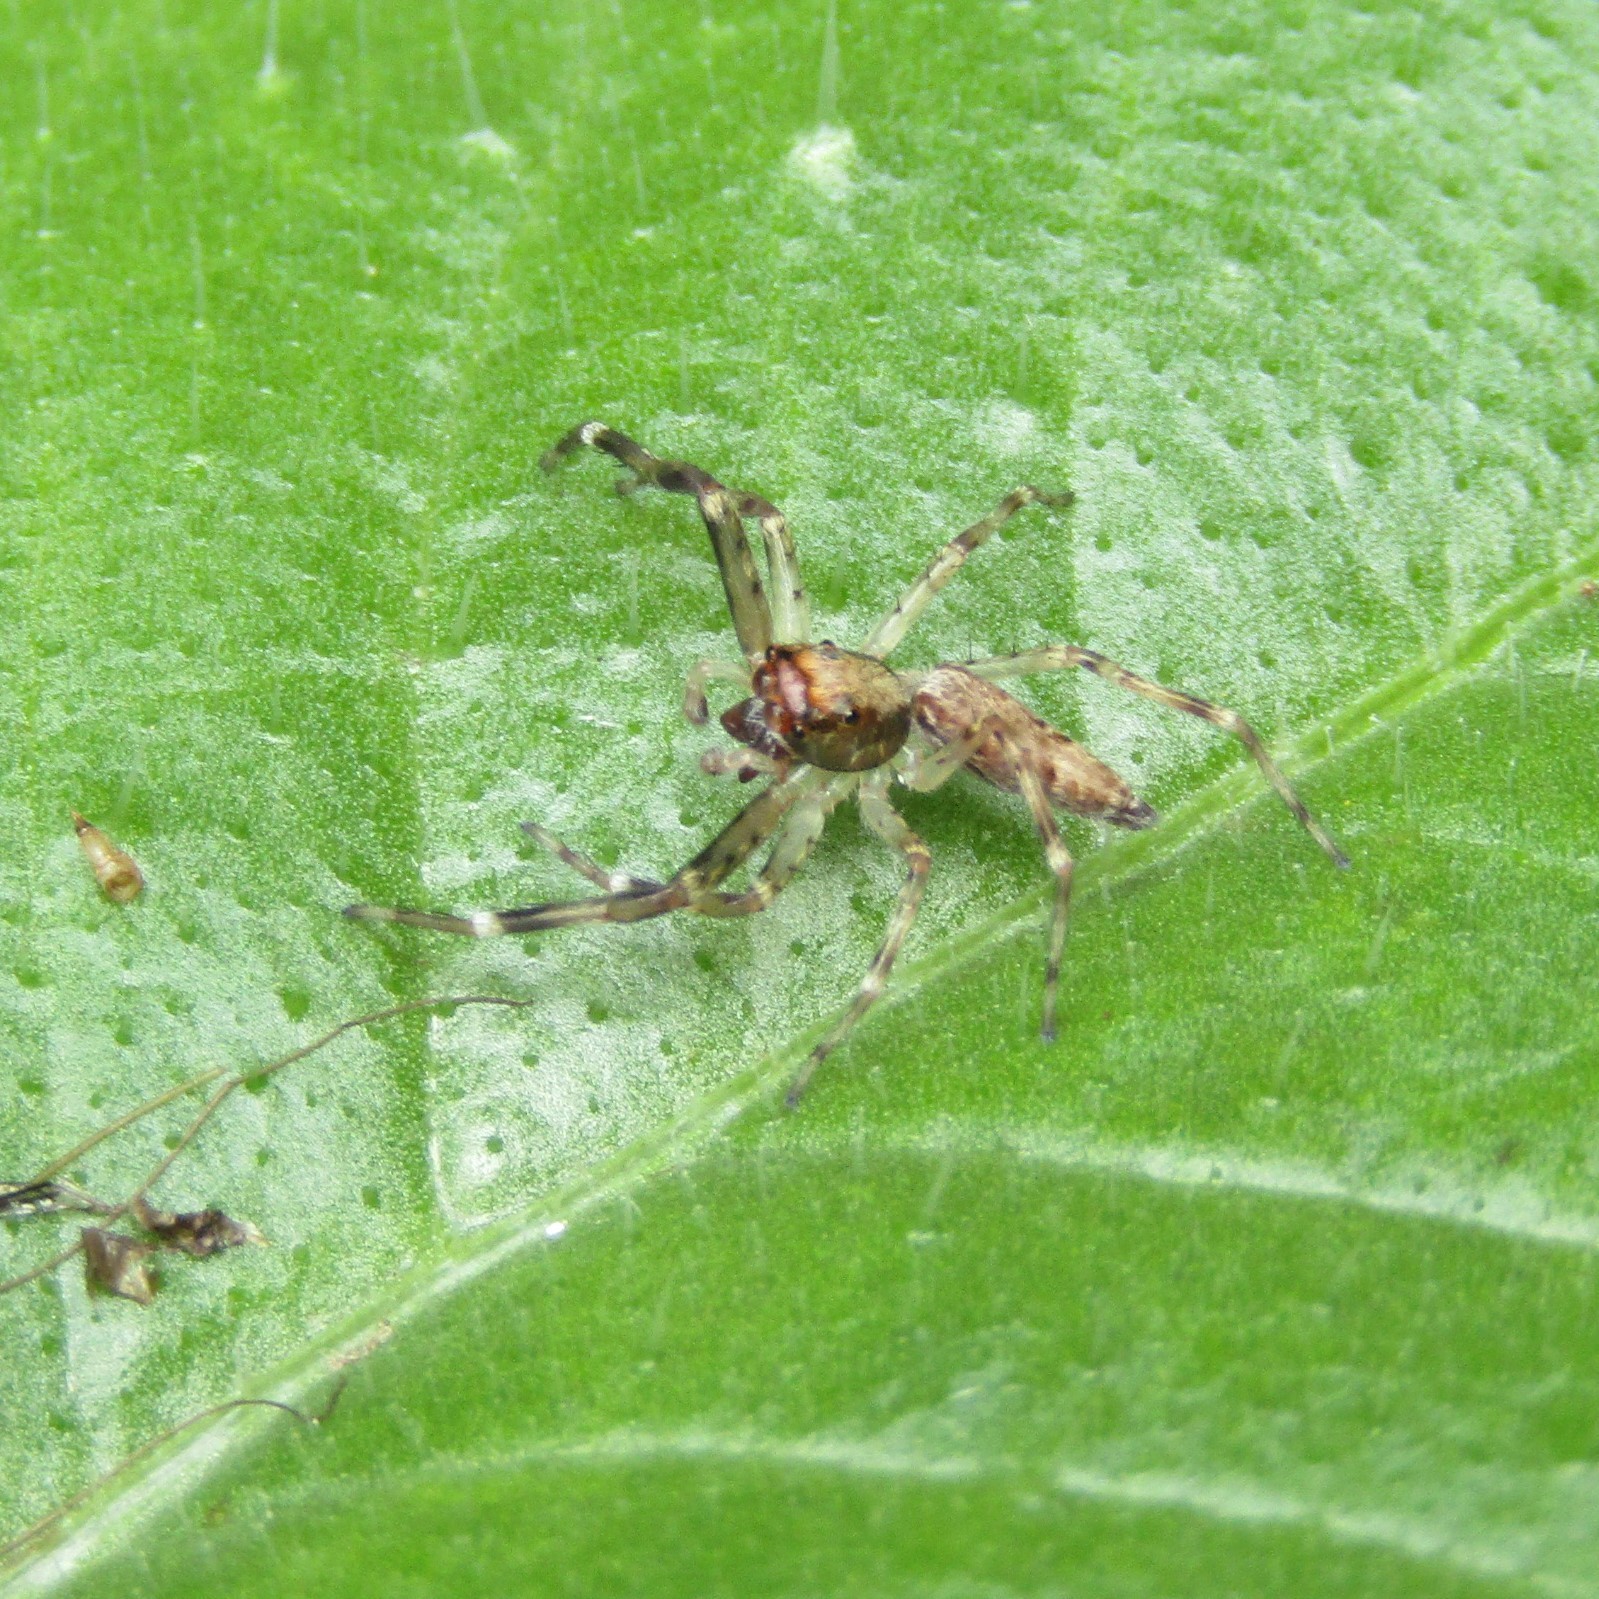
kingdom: Animalia
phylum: Arthropoda
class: Arachnida
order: Araneae
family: Salticidae
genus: Helpis
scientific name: Helpis minitabunda
